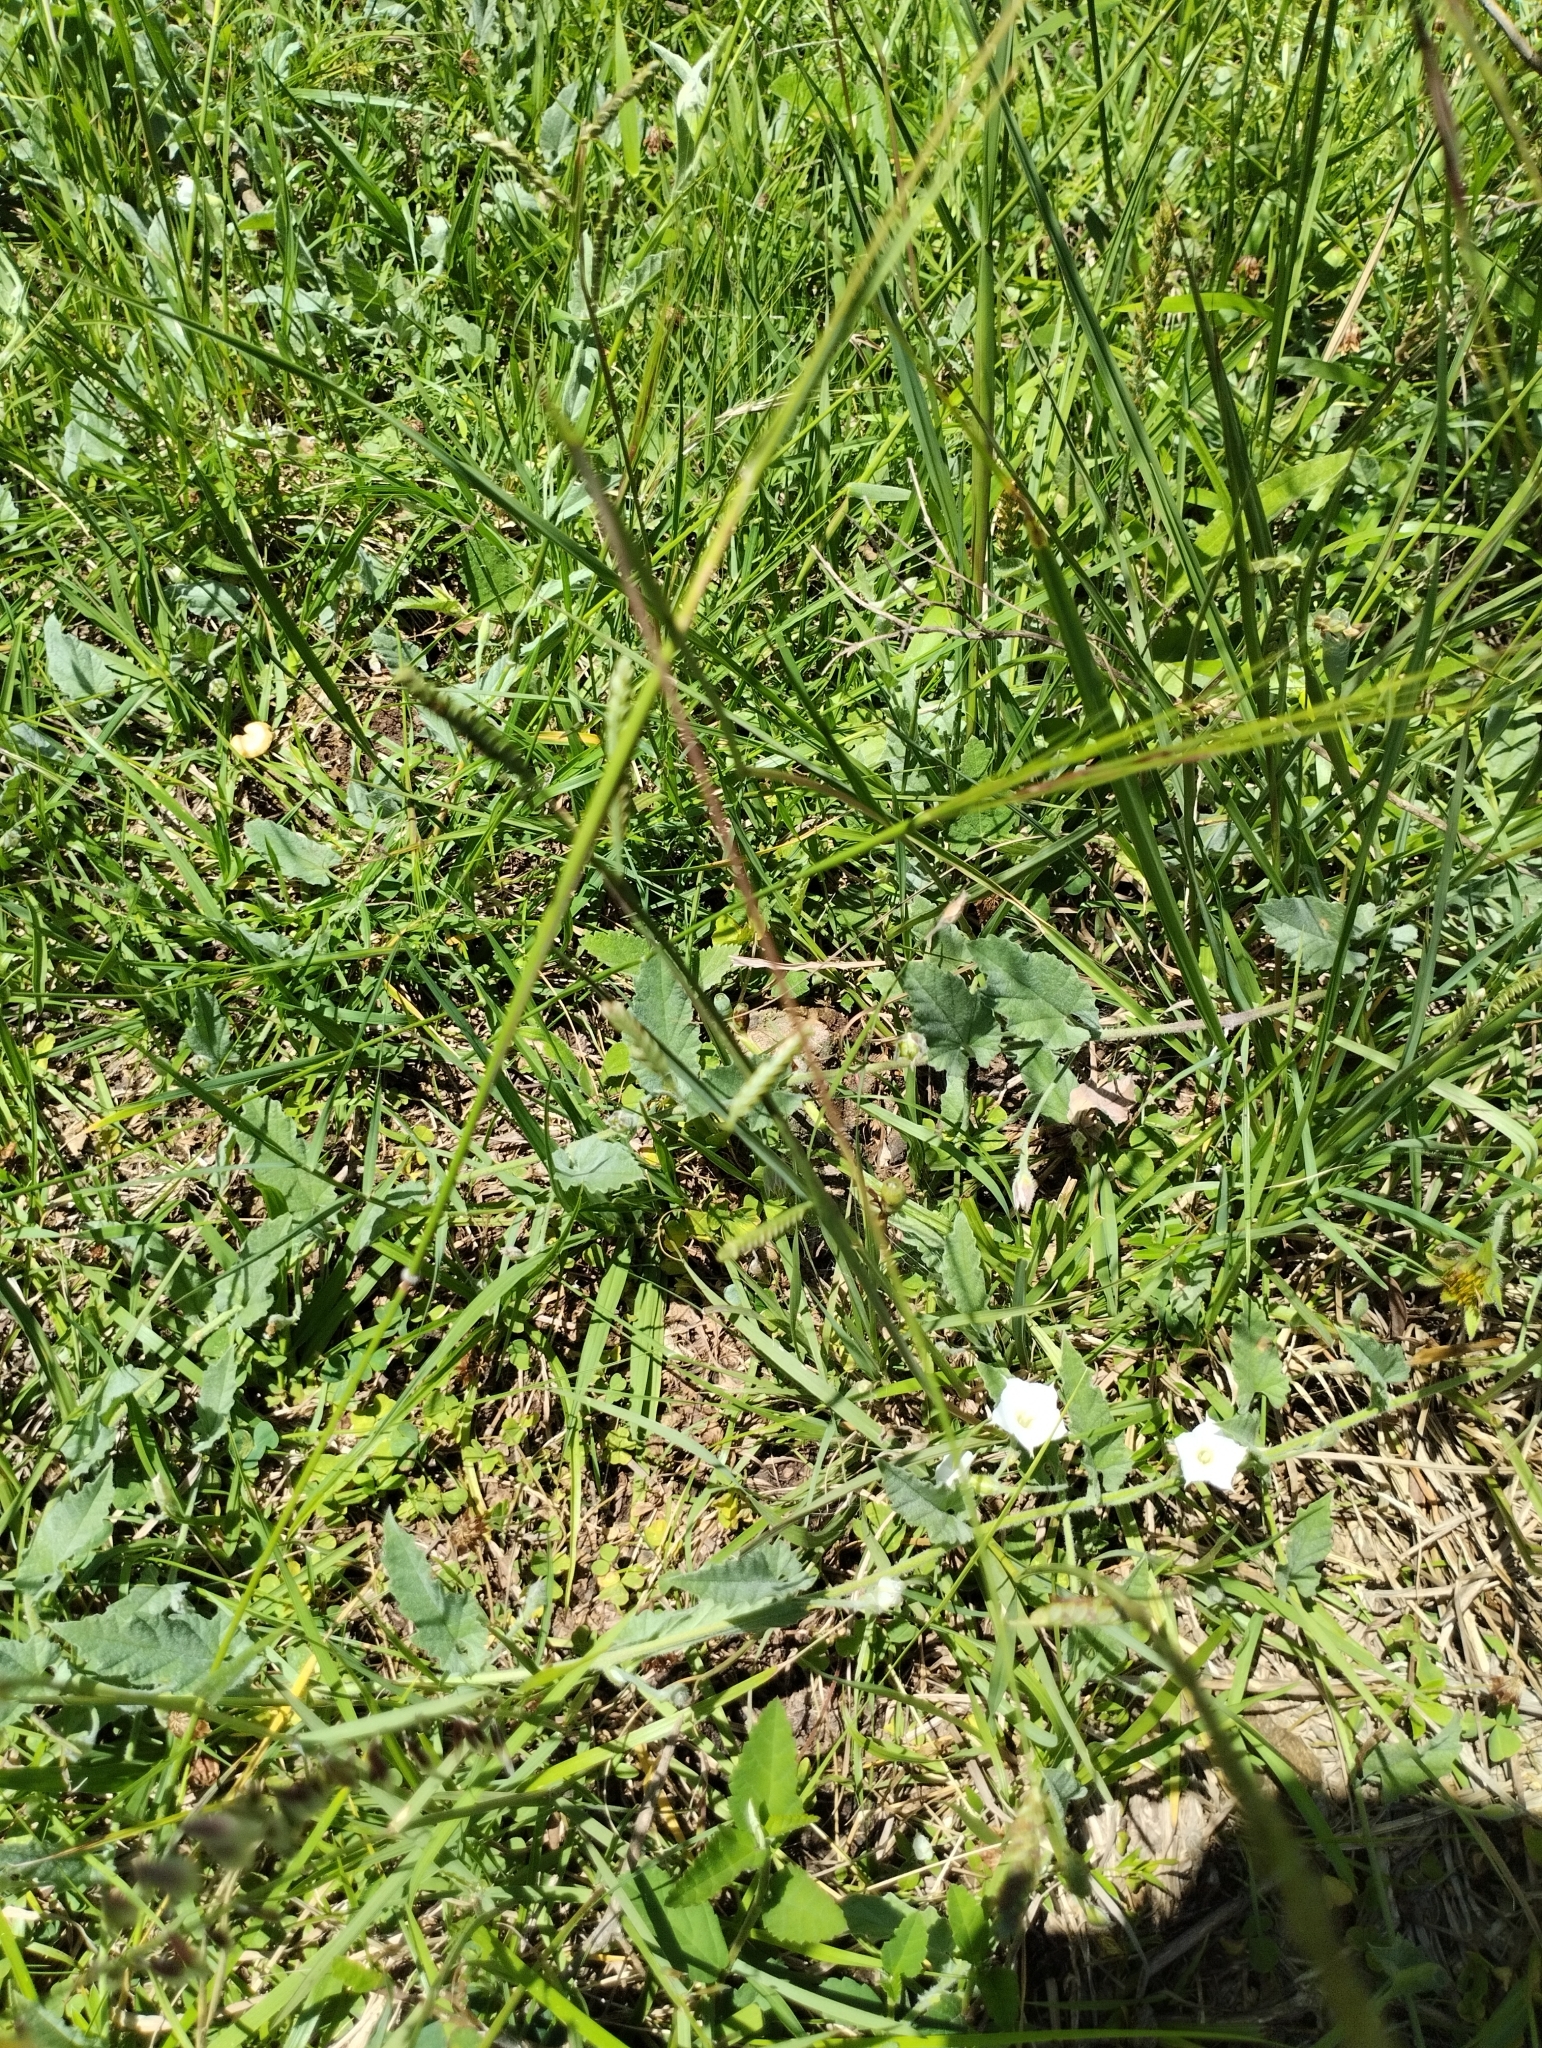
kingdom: Plantae
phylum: Tracheophyta
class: Magnoliopsida
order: Solanales
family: Convolvulaceae
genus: Convolvulus
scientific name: Convolvulus hermanniae
